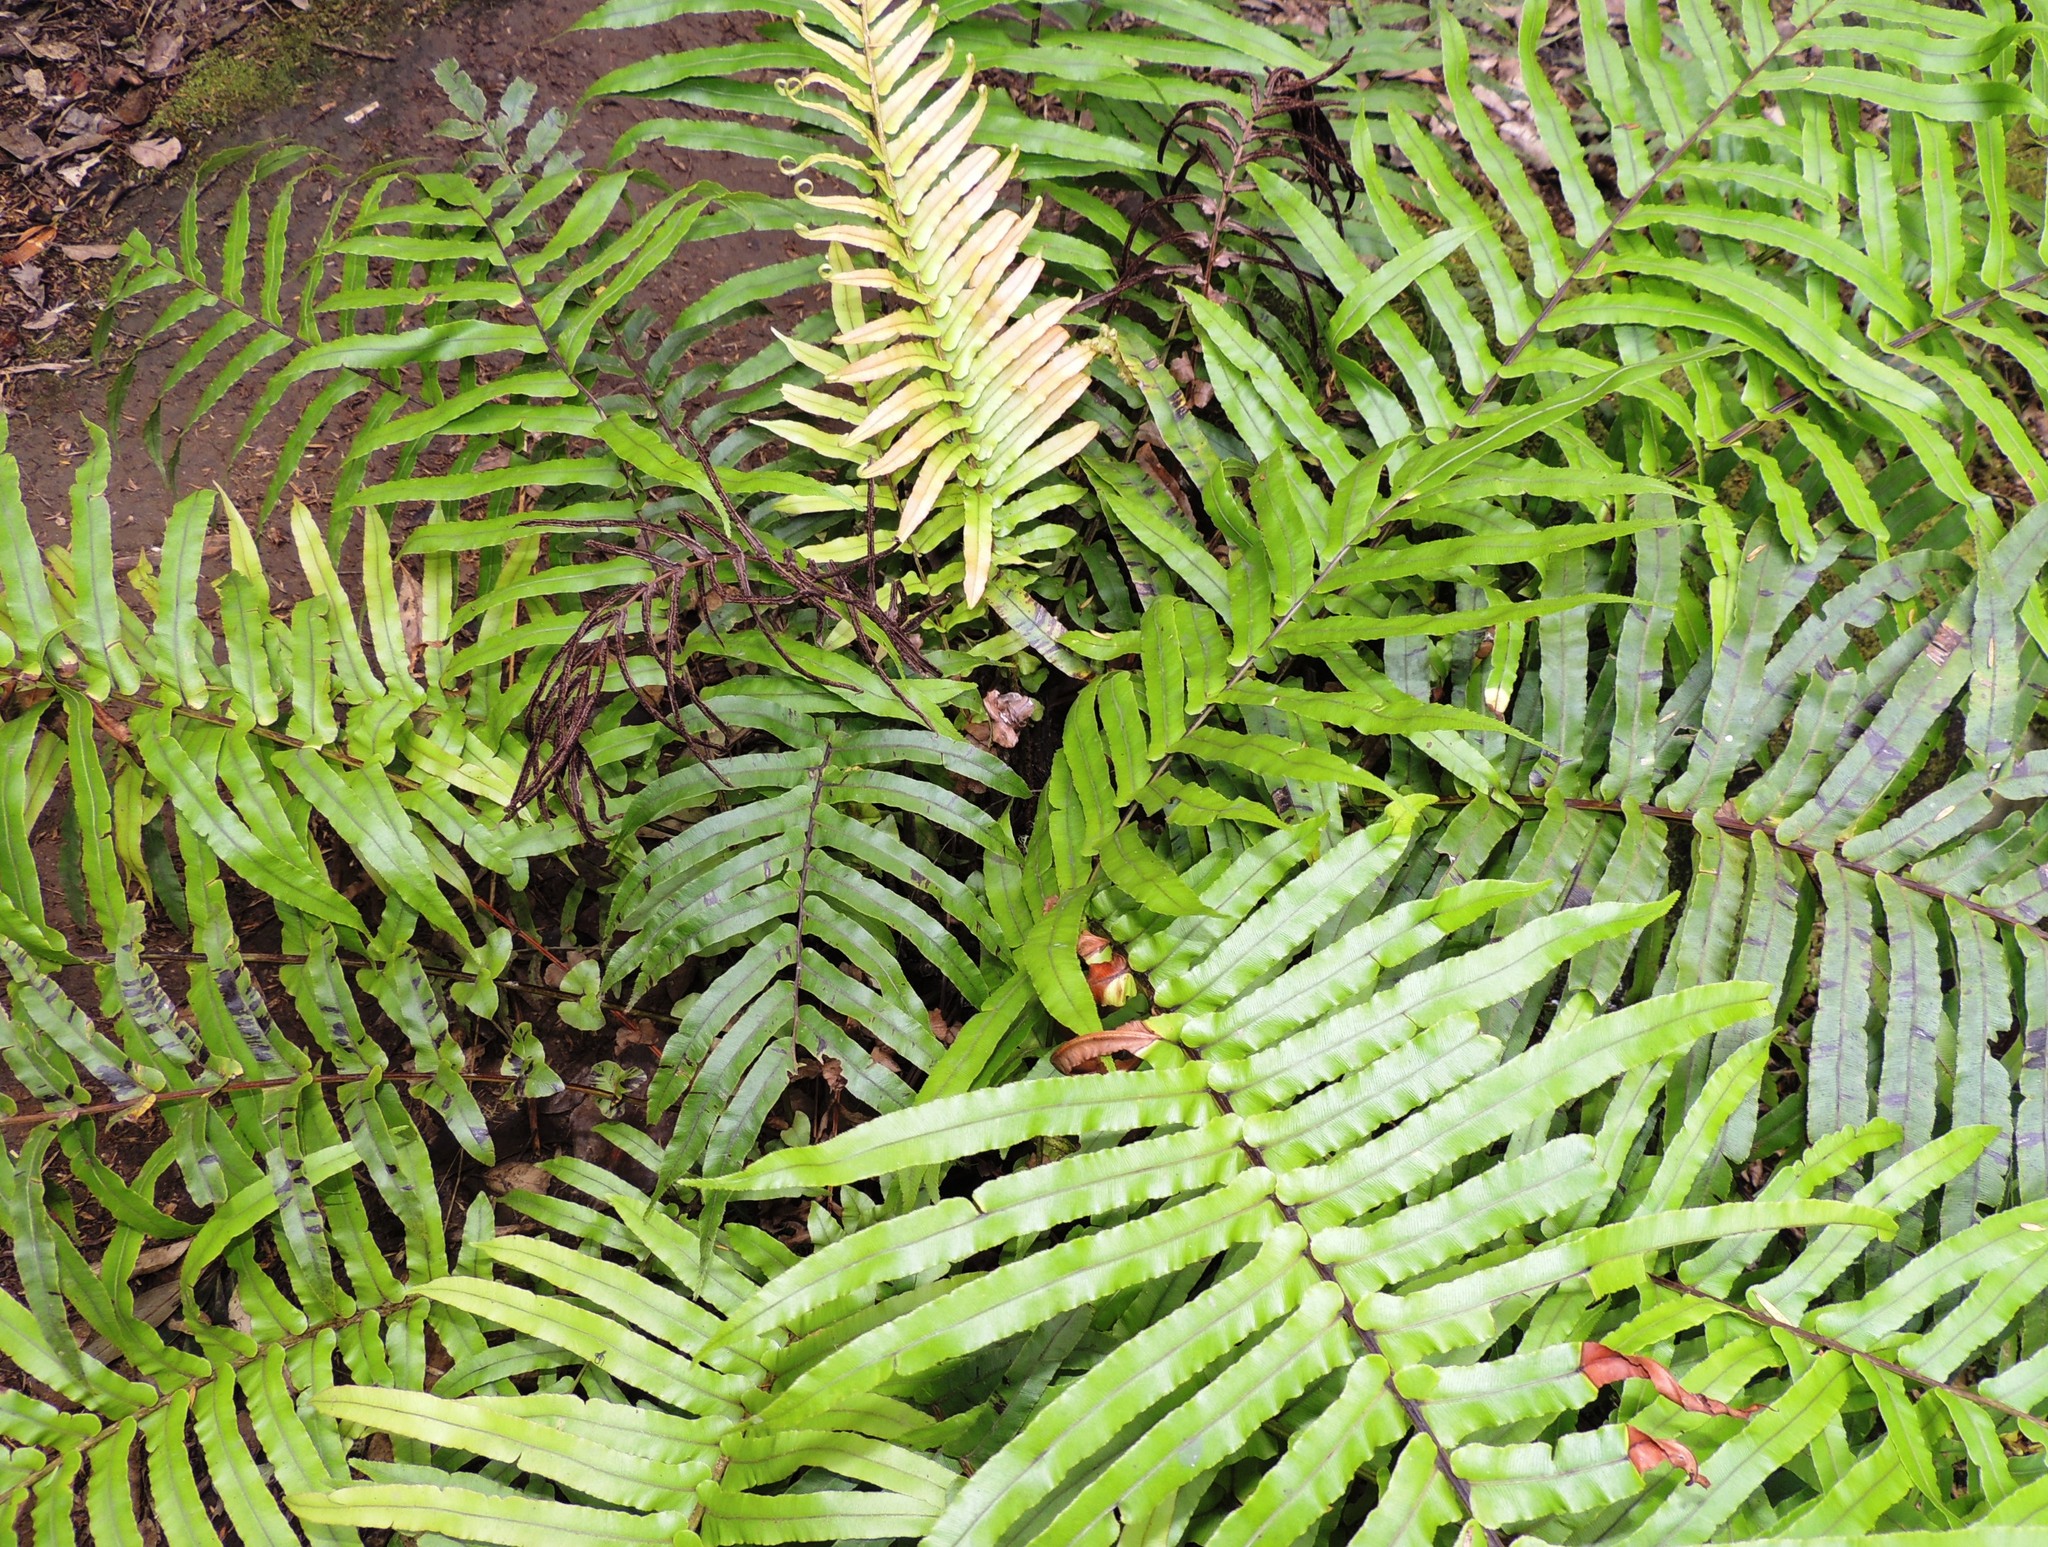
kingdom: Plantae
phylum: Tracheophyta
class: Polypodiopsida
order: Polypodiales
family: Blechnaceae
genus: Parablechnum
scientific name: Parablechnum novae-zelandiae
